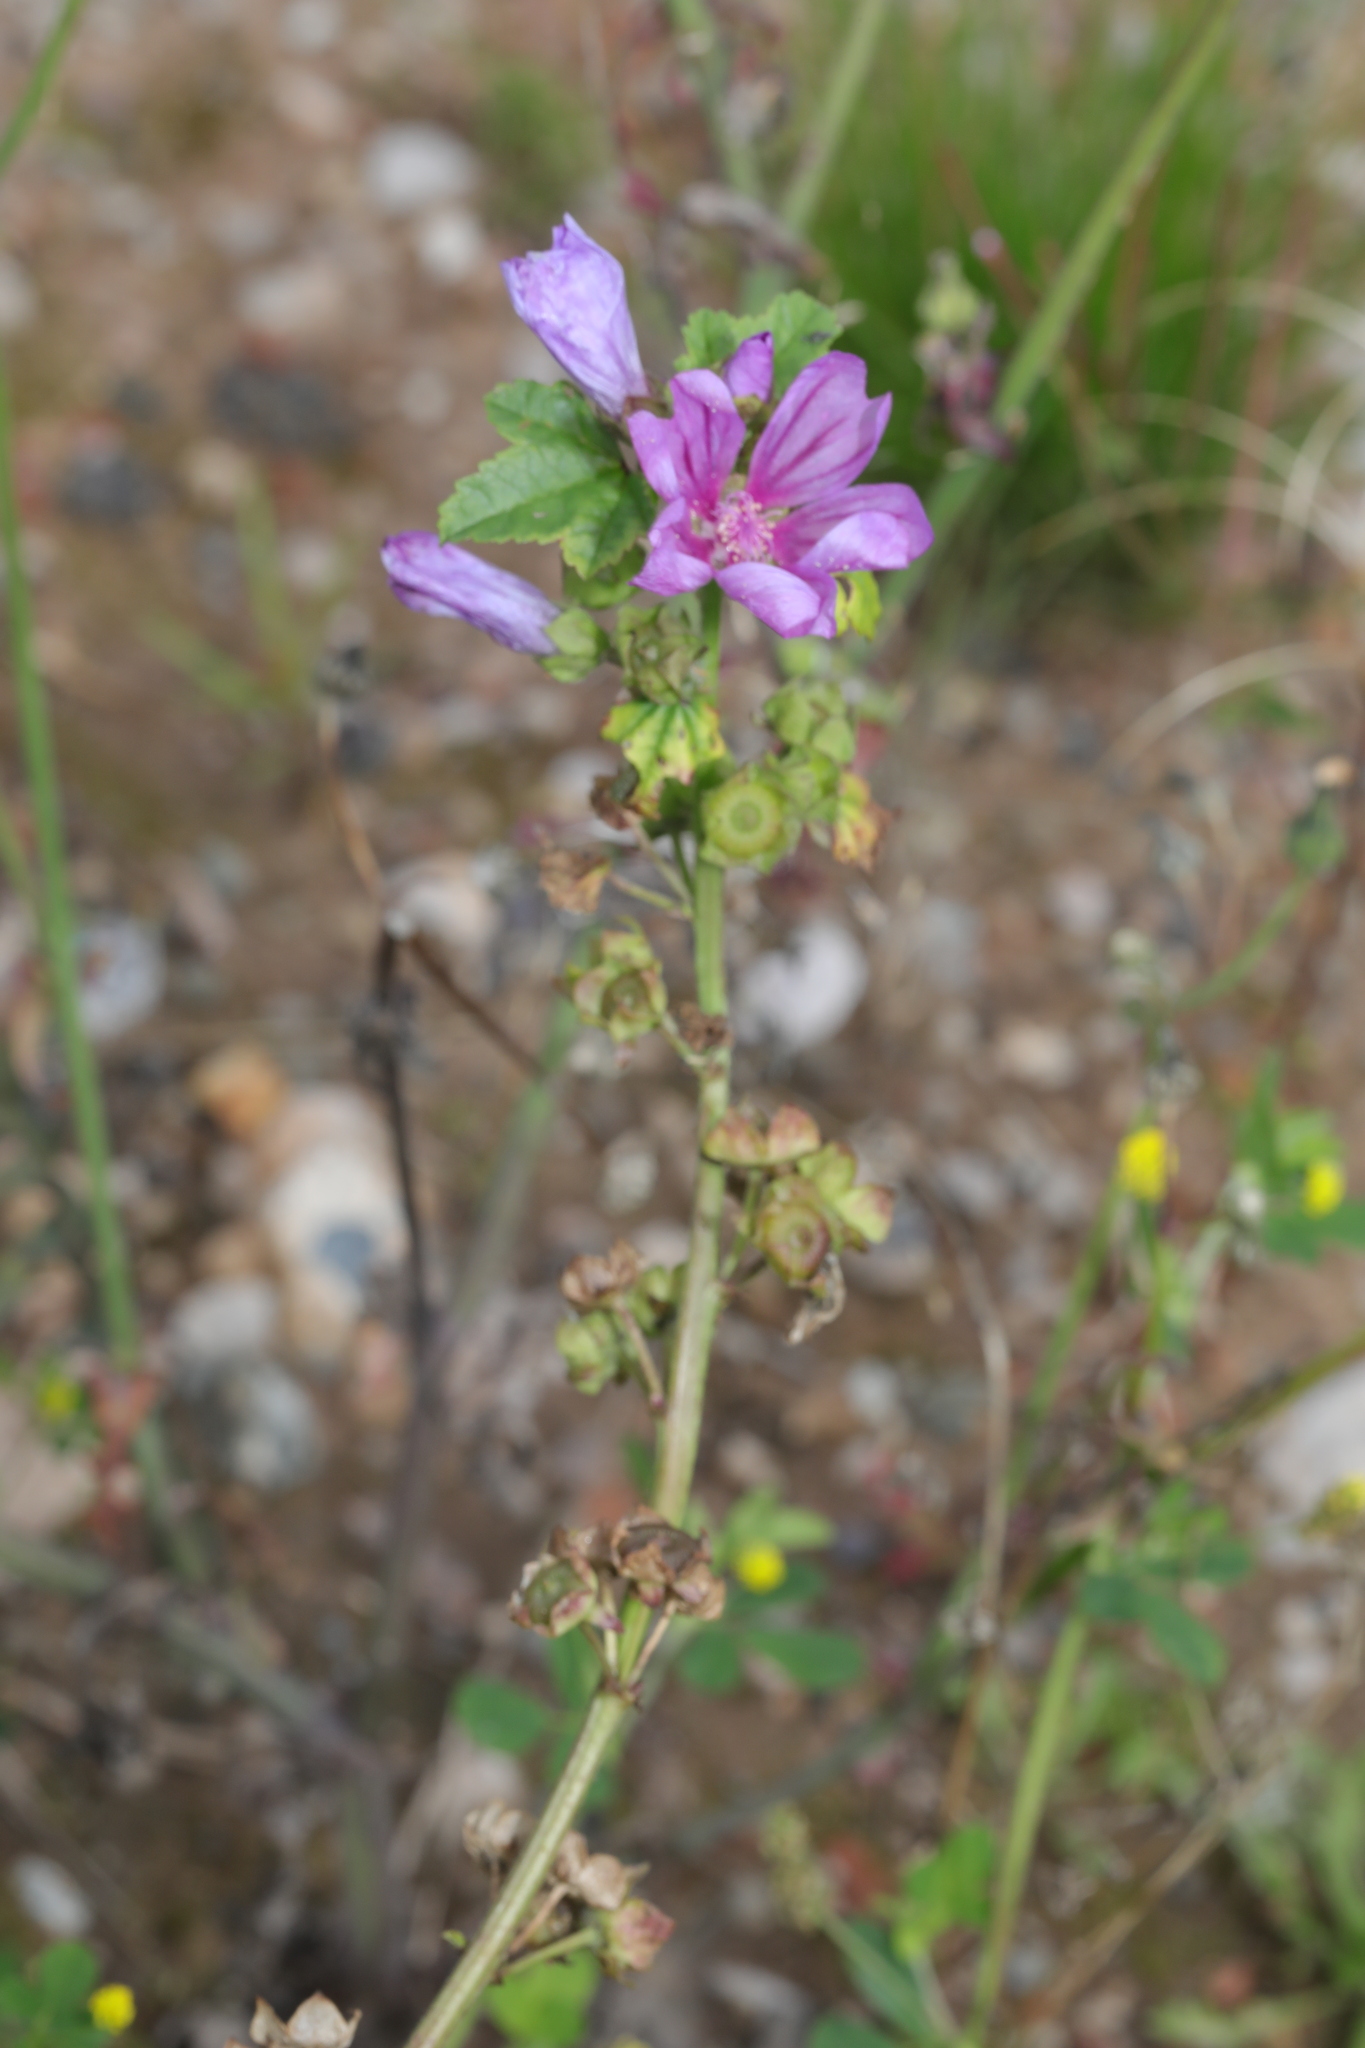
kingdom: Plantae
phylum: Tracheophyta
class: Magnoliopsida
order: Malvales
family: Malvaceae
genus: Malva
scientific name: Malva sylvestris
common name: Common mallow
